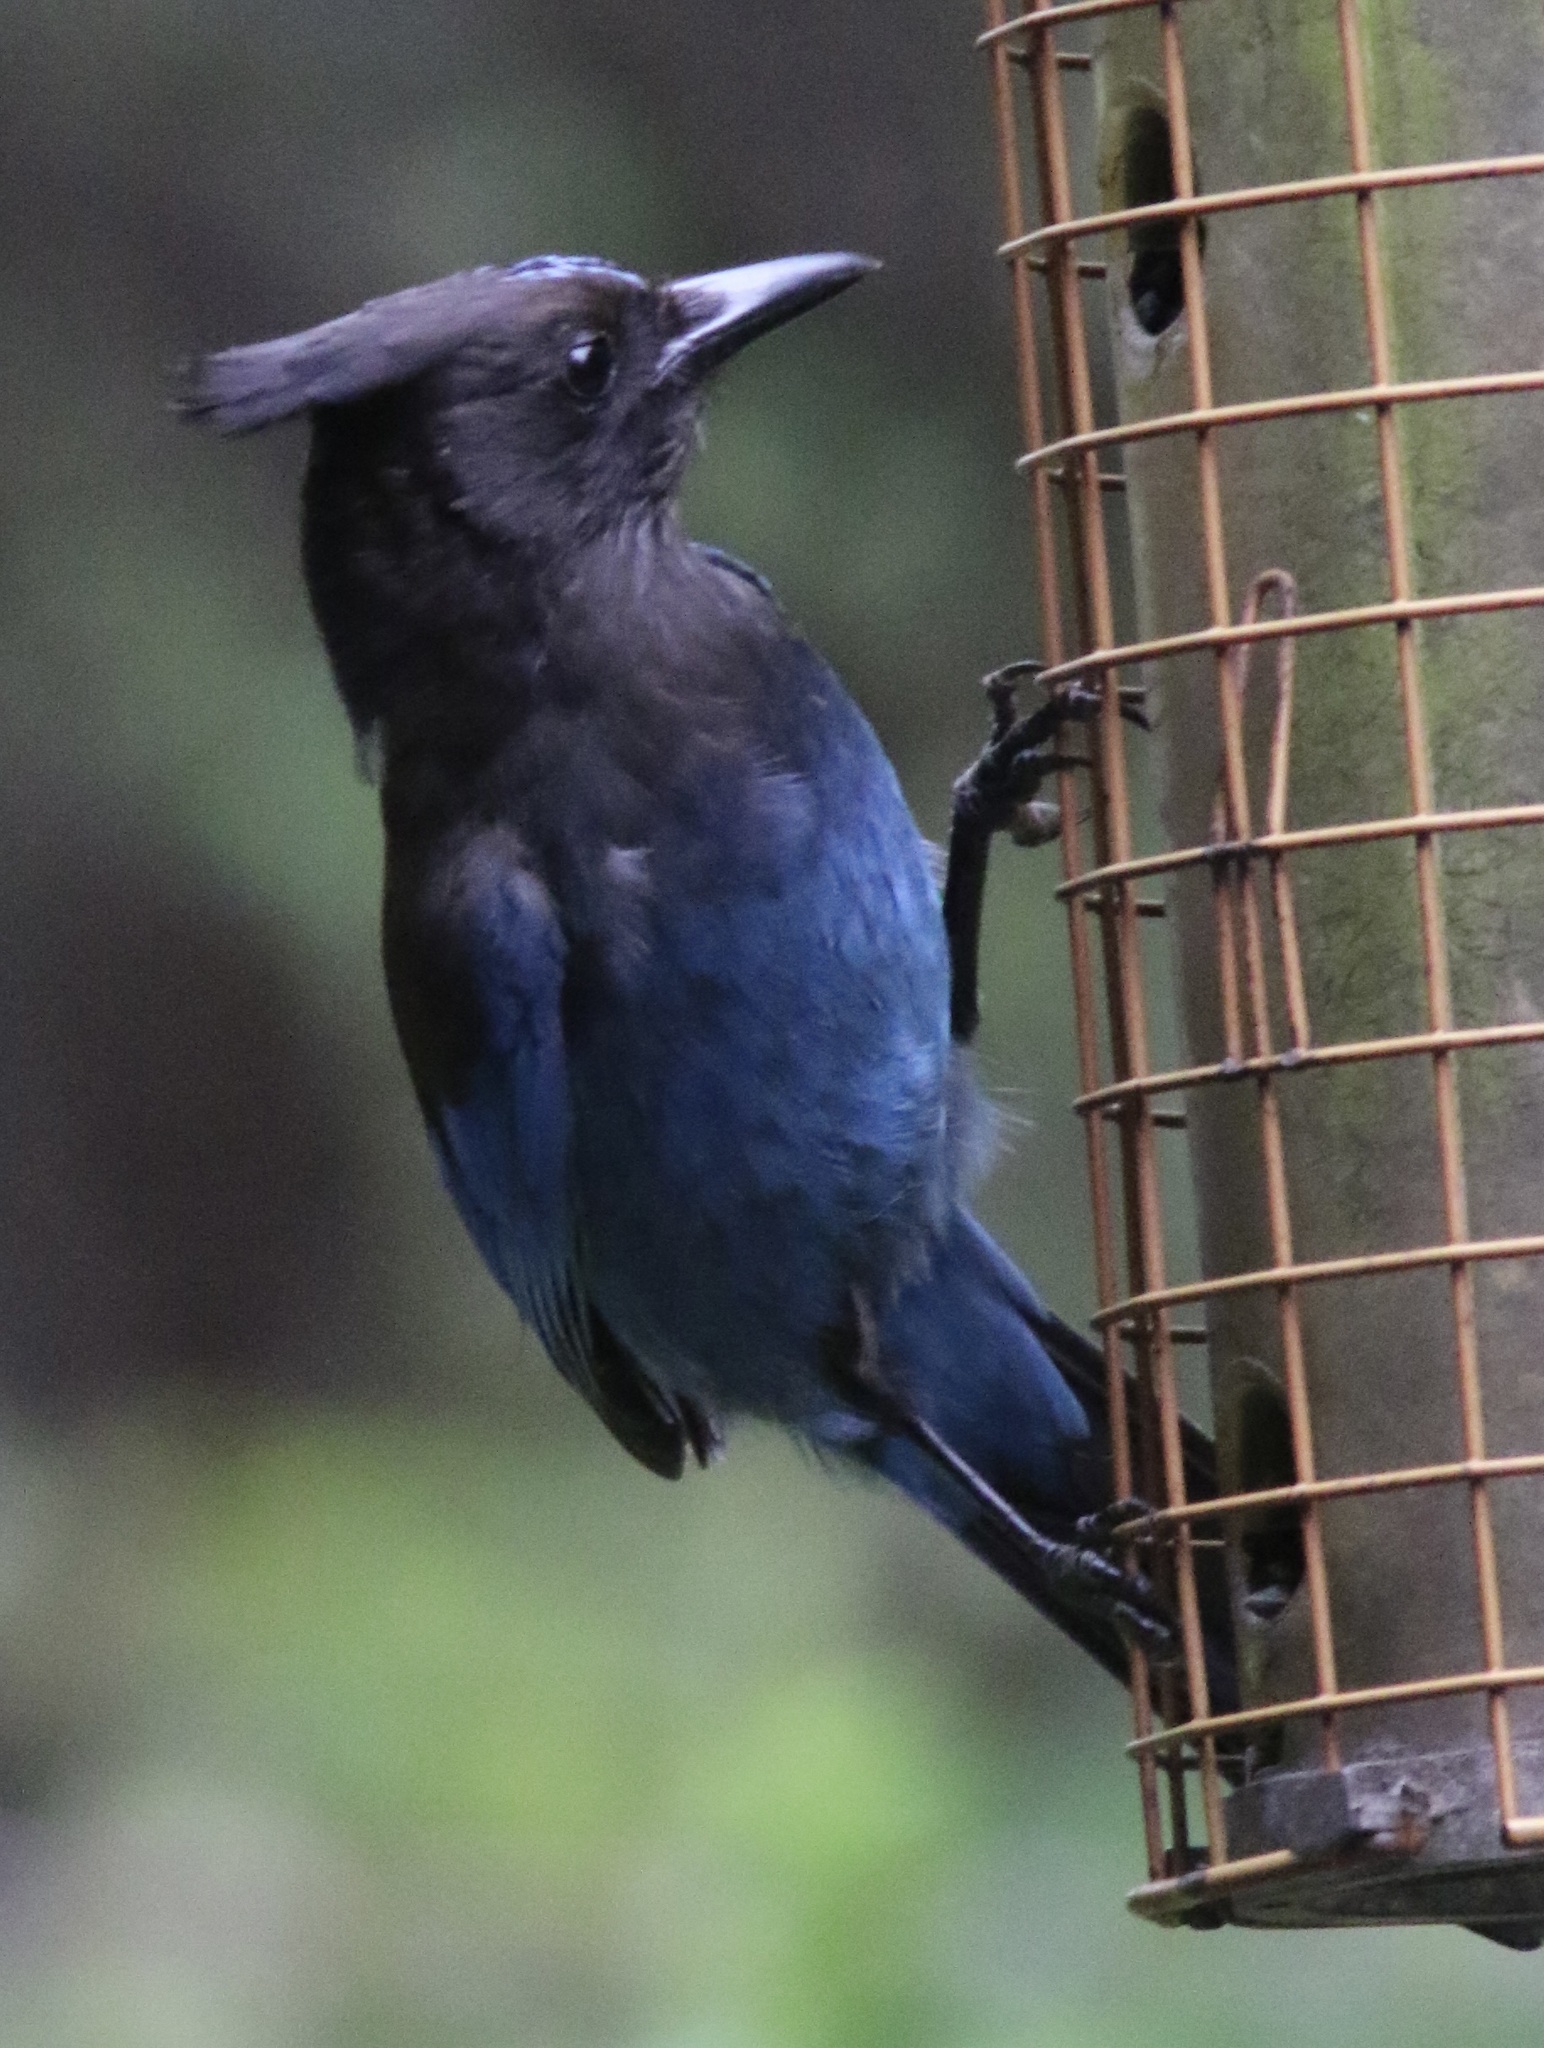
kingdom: Animalia
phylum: Chordata
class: Aves
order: Passeriformes
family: Corvidae
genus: Cyanocitta
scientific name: Cyanocitta stelleri
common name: Steller's jay
